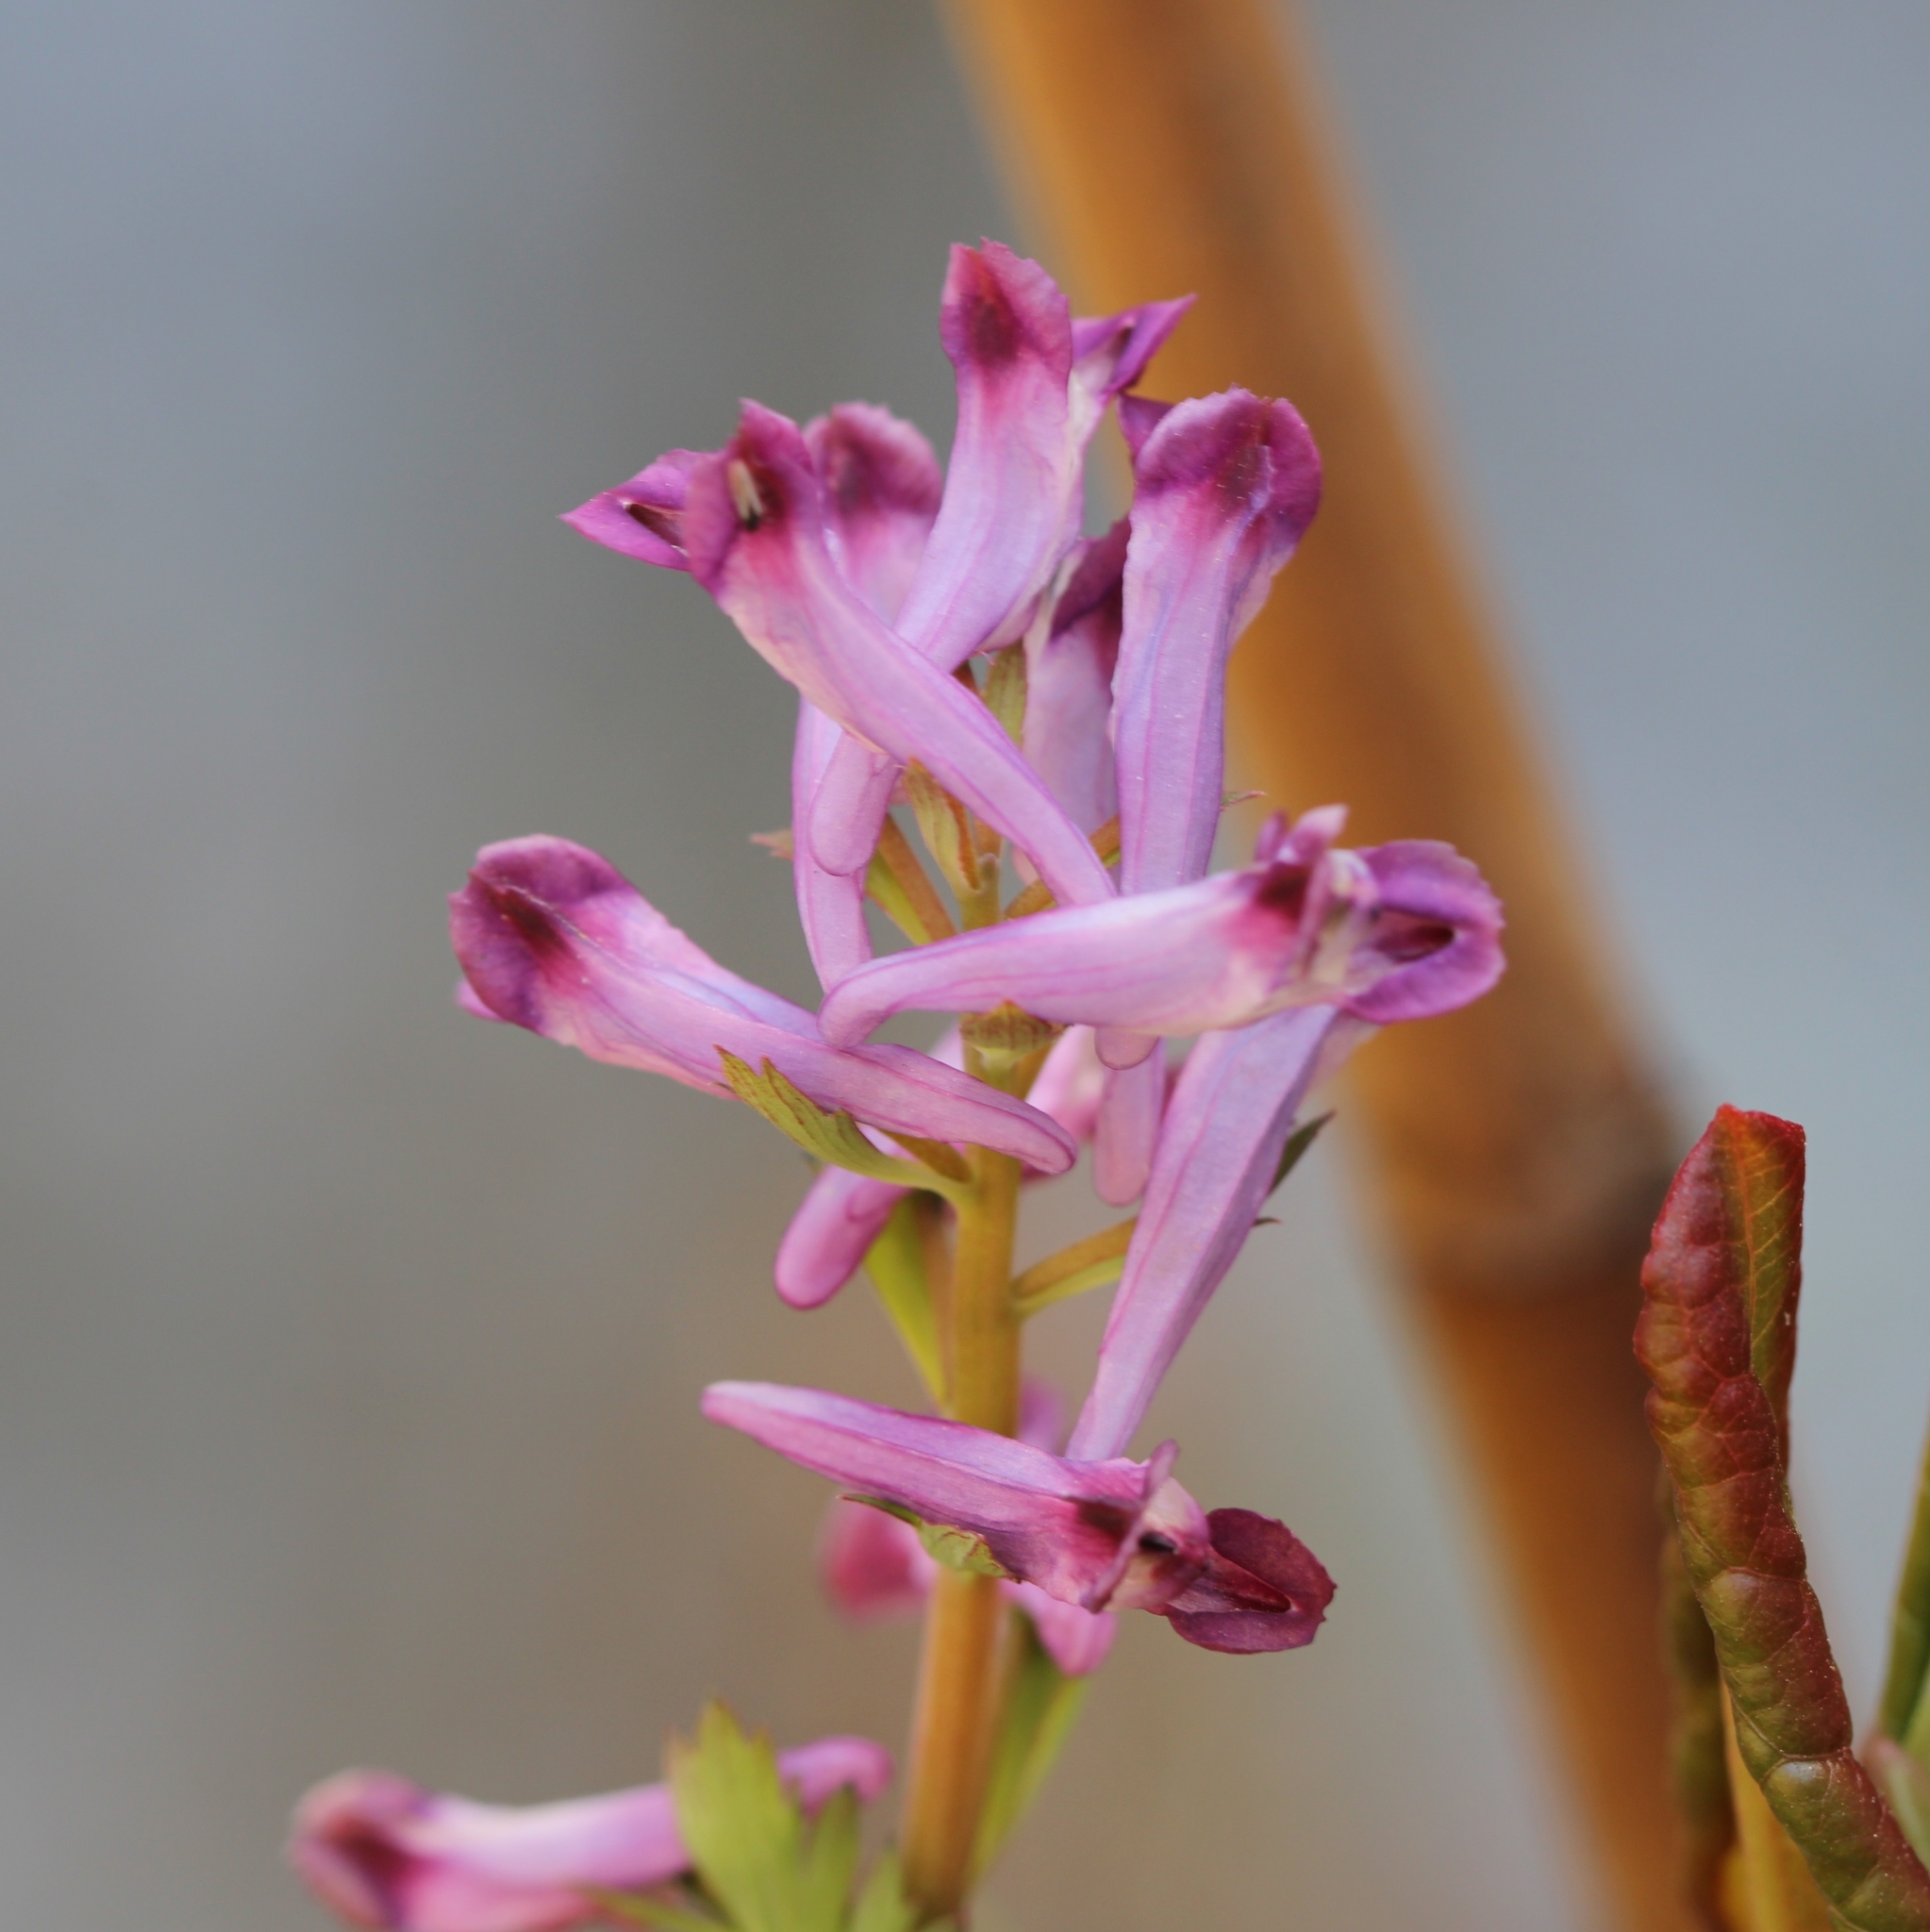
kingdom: Plantae
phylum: Tracheophyta
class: Magnoliopsida
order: Ranunculales
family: Papaveraceae
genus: Corydalis
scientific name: Corydalis incisa
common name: Incised fumewort
